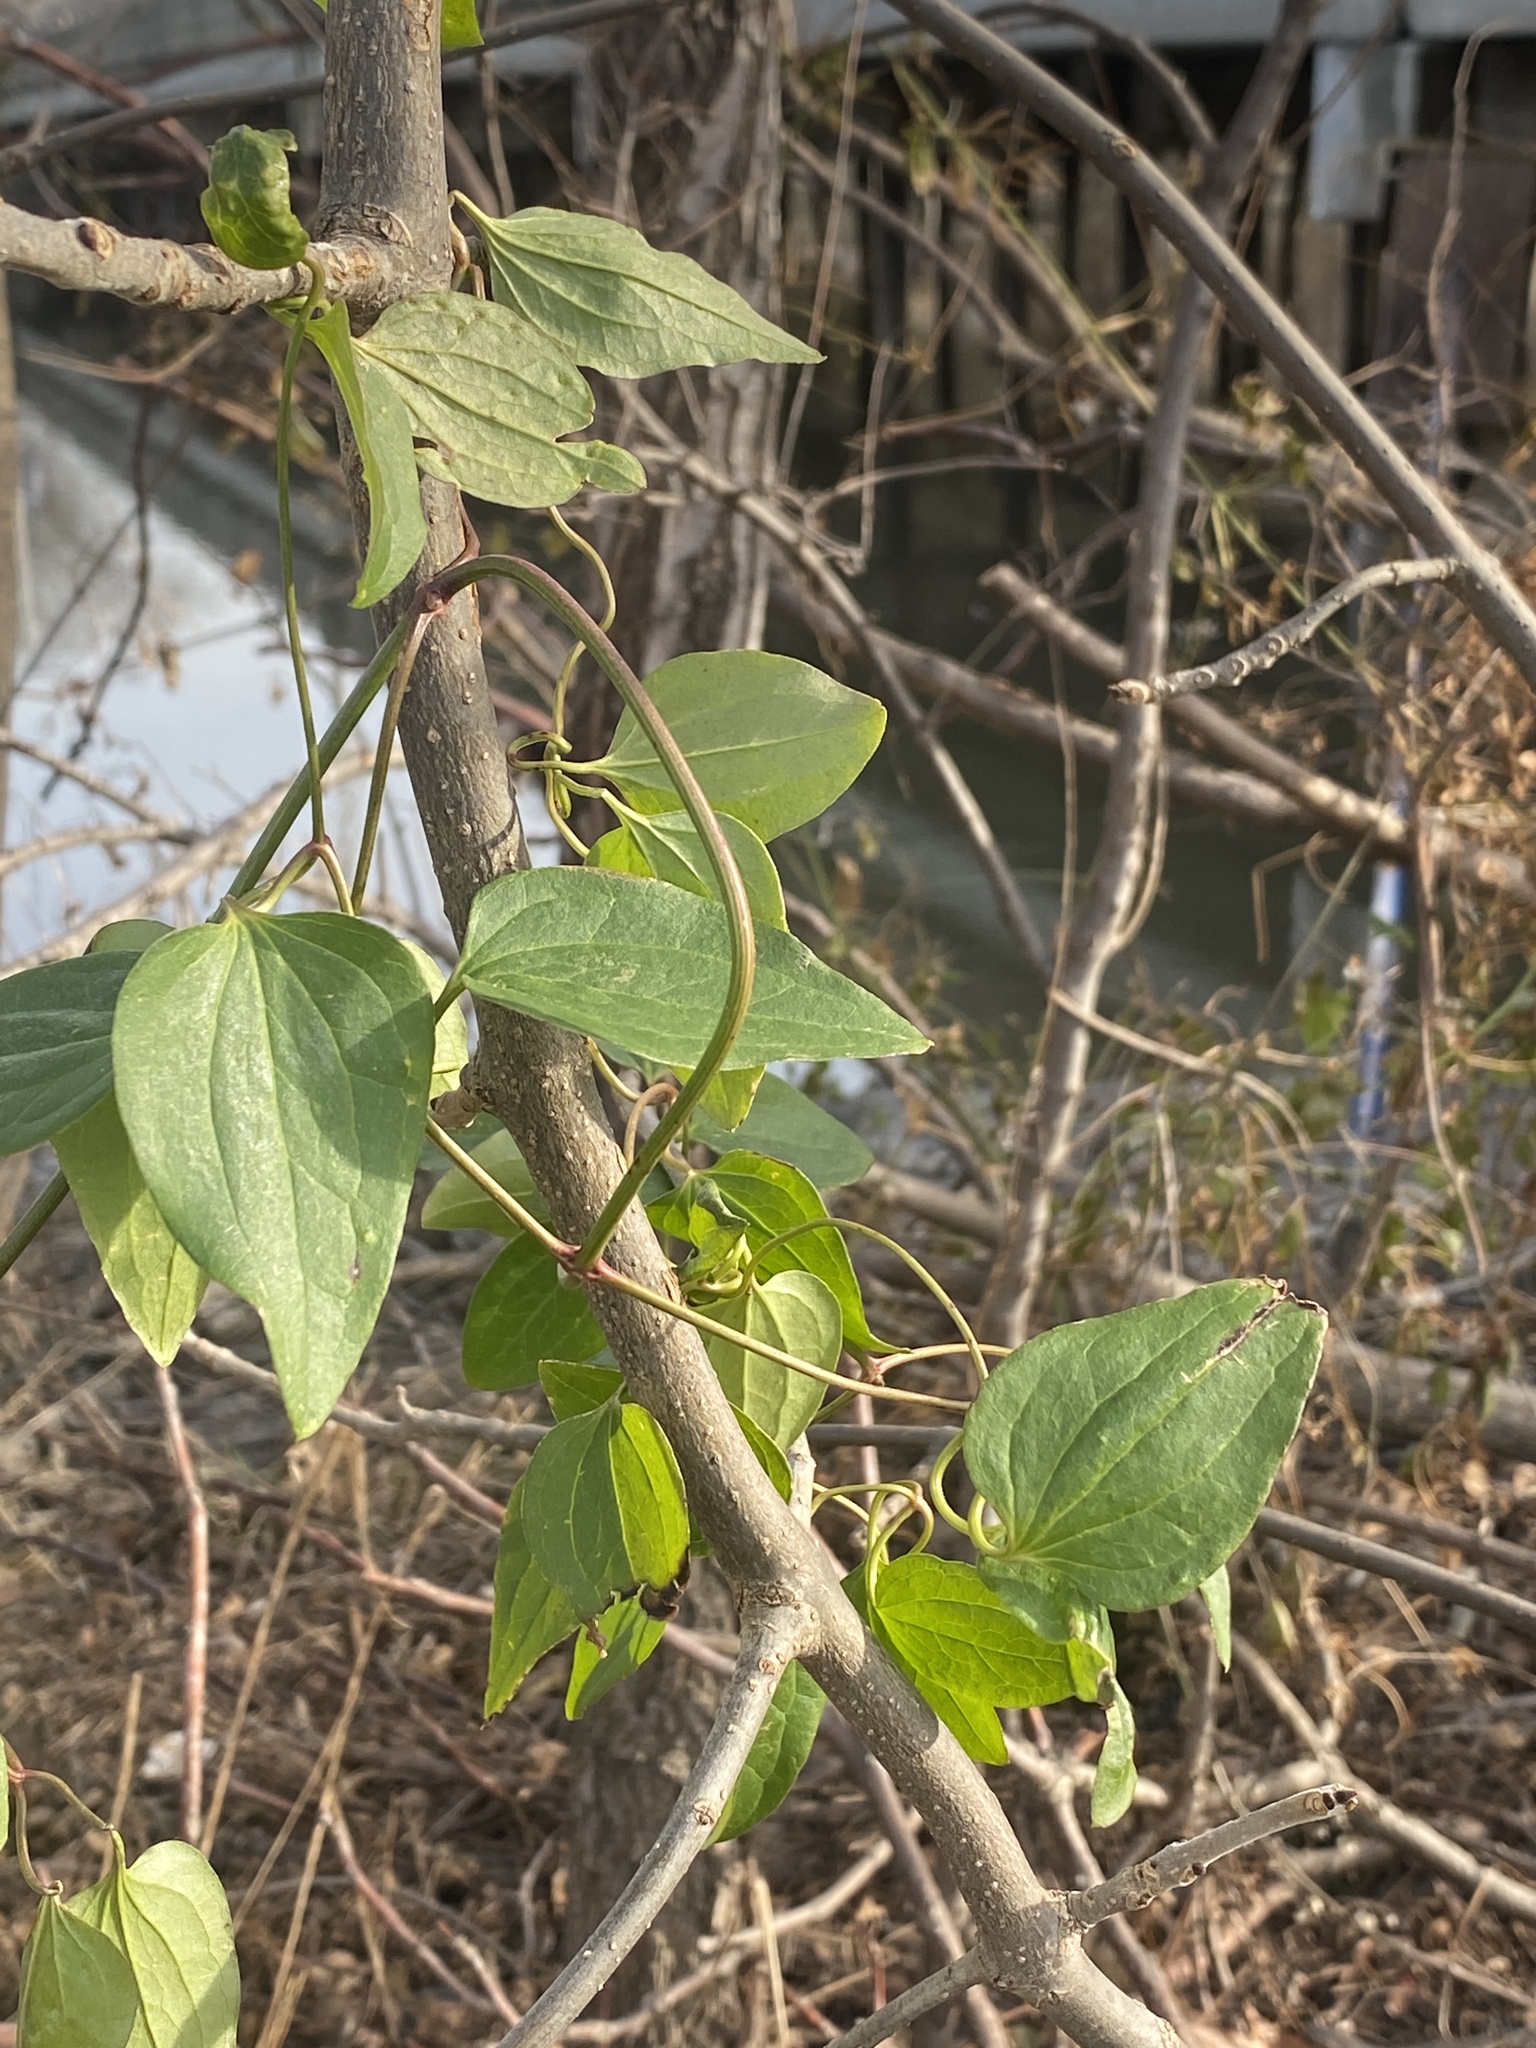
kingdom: Plantae
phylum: Tracheophyta
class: Magnoliopsida
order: Ranunculales
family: Ranunculaceae
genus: Clematis
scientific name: Clematis terniflora
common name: Sweet autumn clematis
